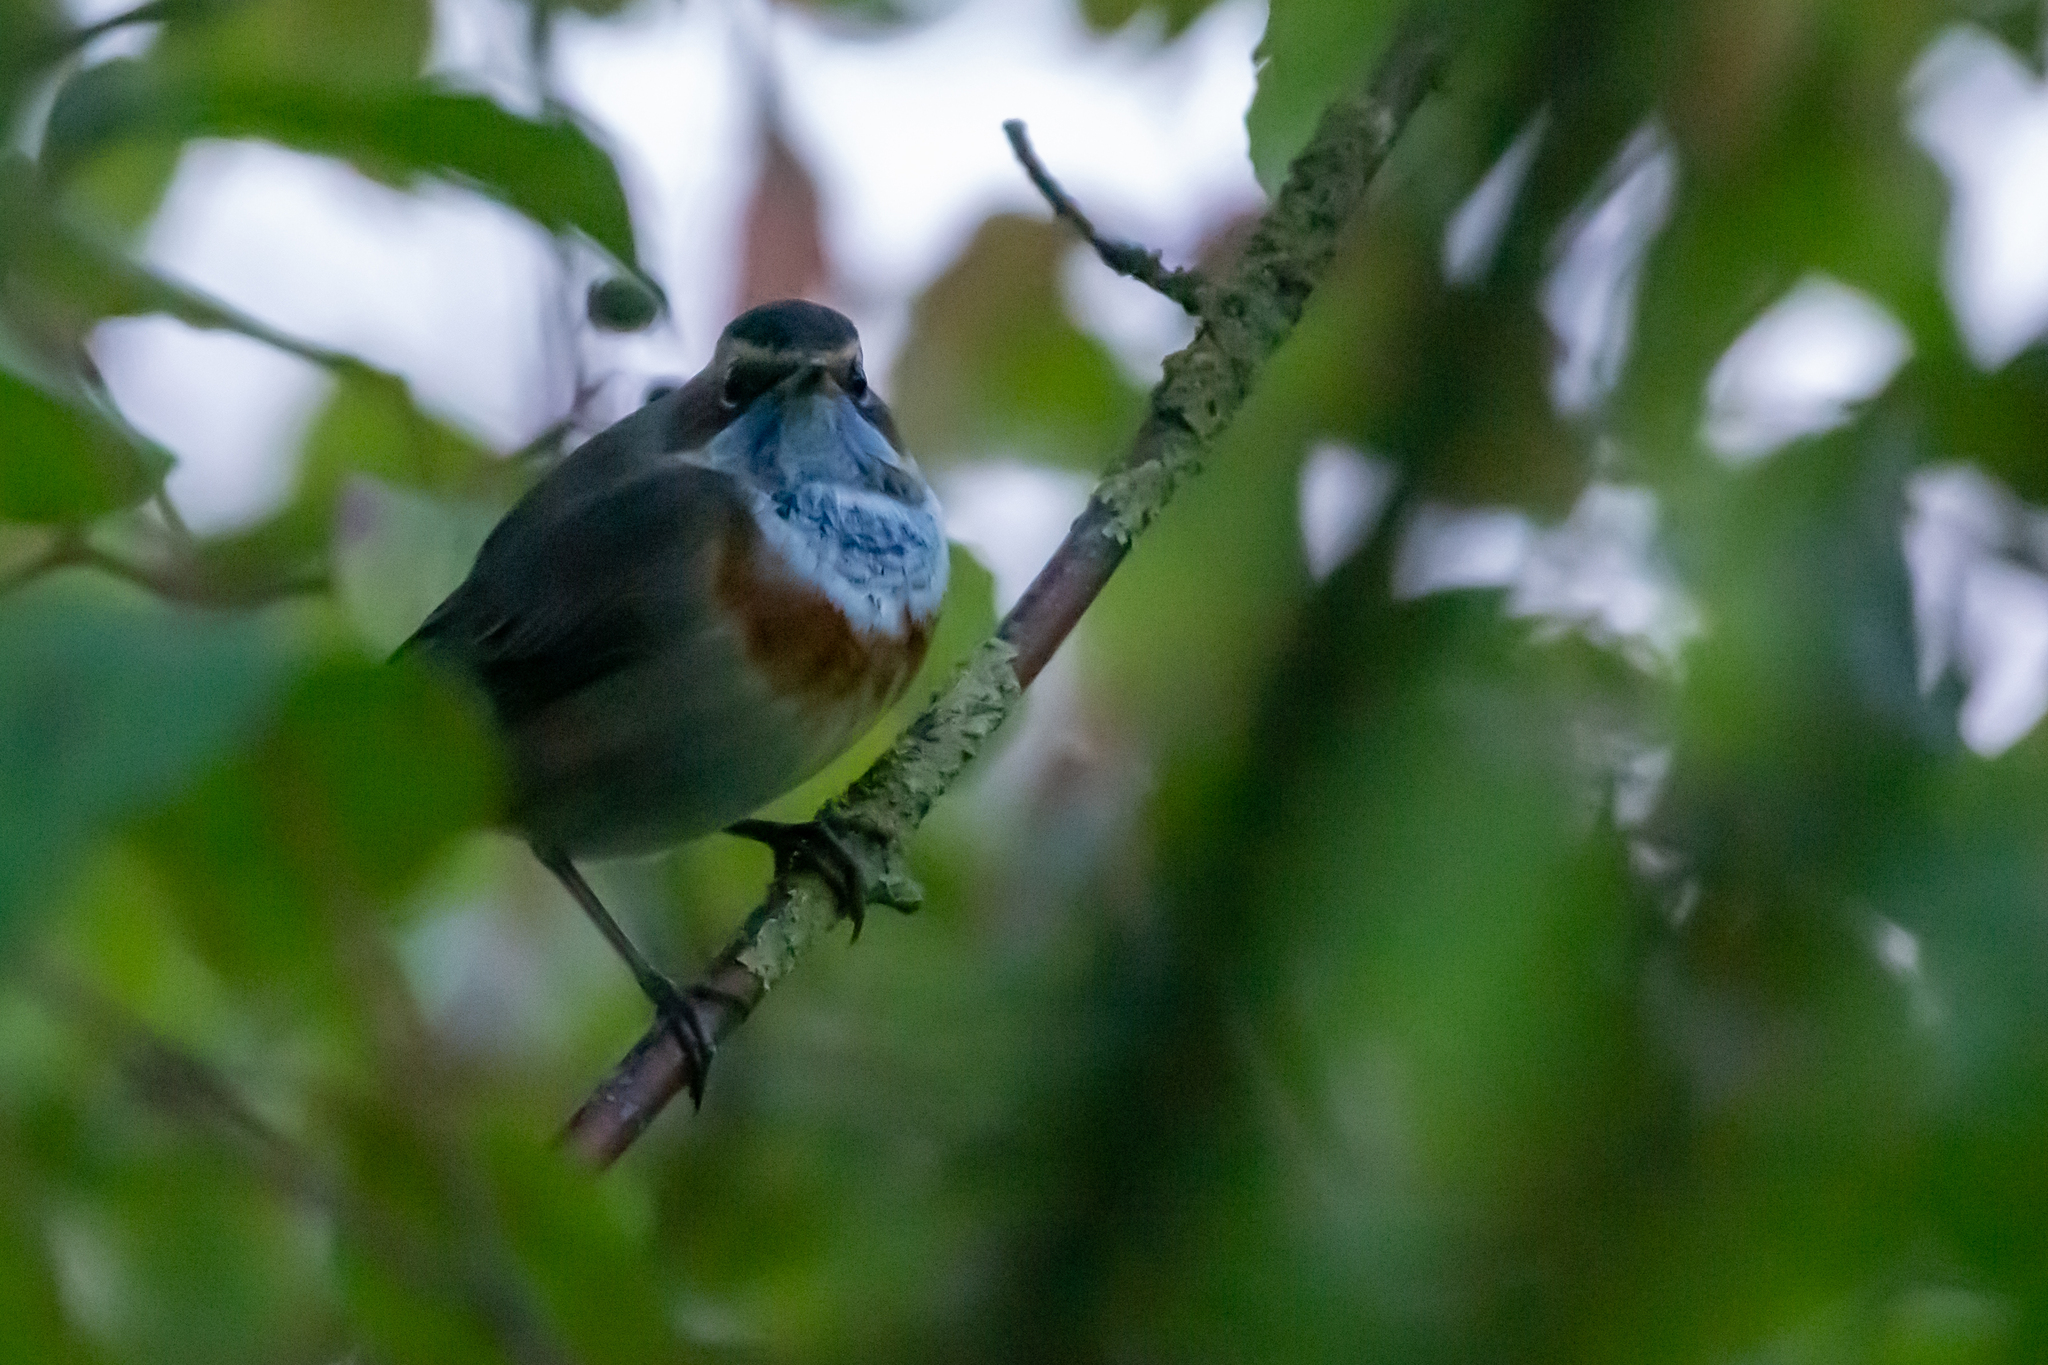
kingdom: Animalia
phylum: Chordata
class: Aves
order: Passeriformes
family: Muscicapidae
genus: Luscinia
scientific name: Luscinia svecica
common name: Bluethroat
